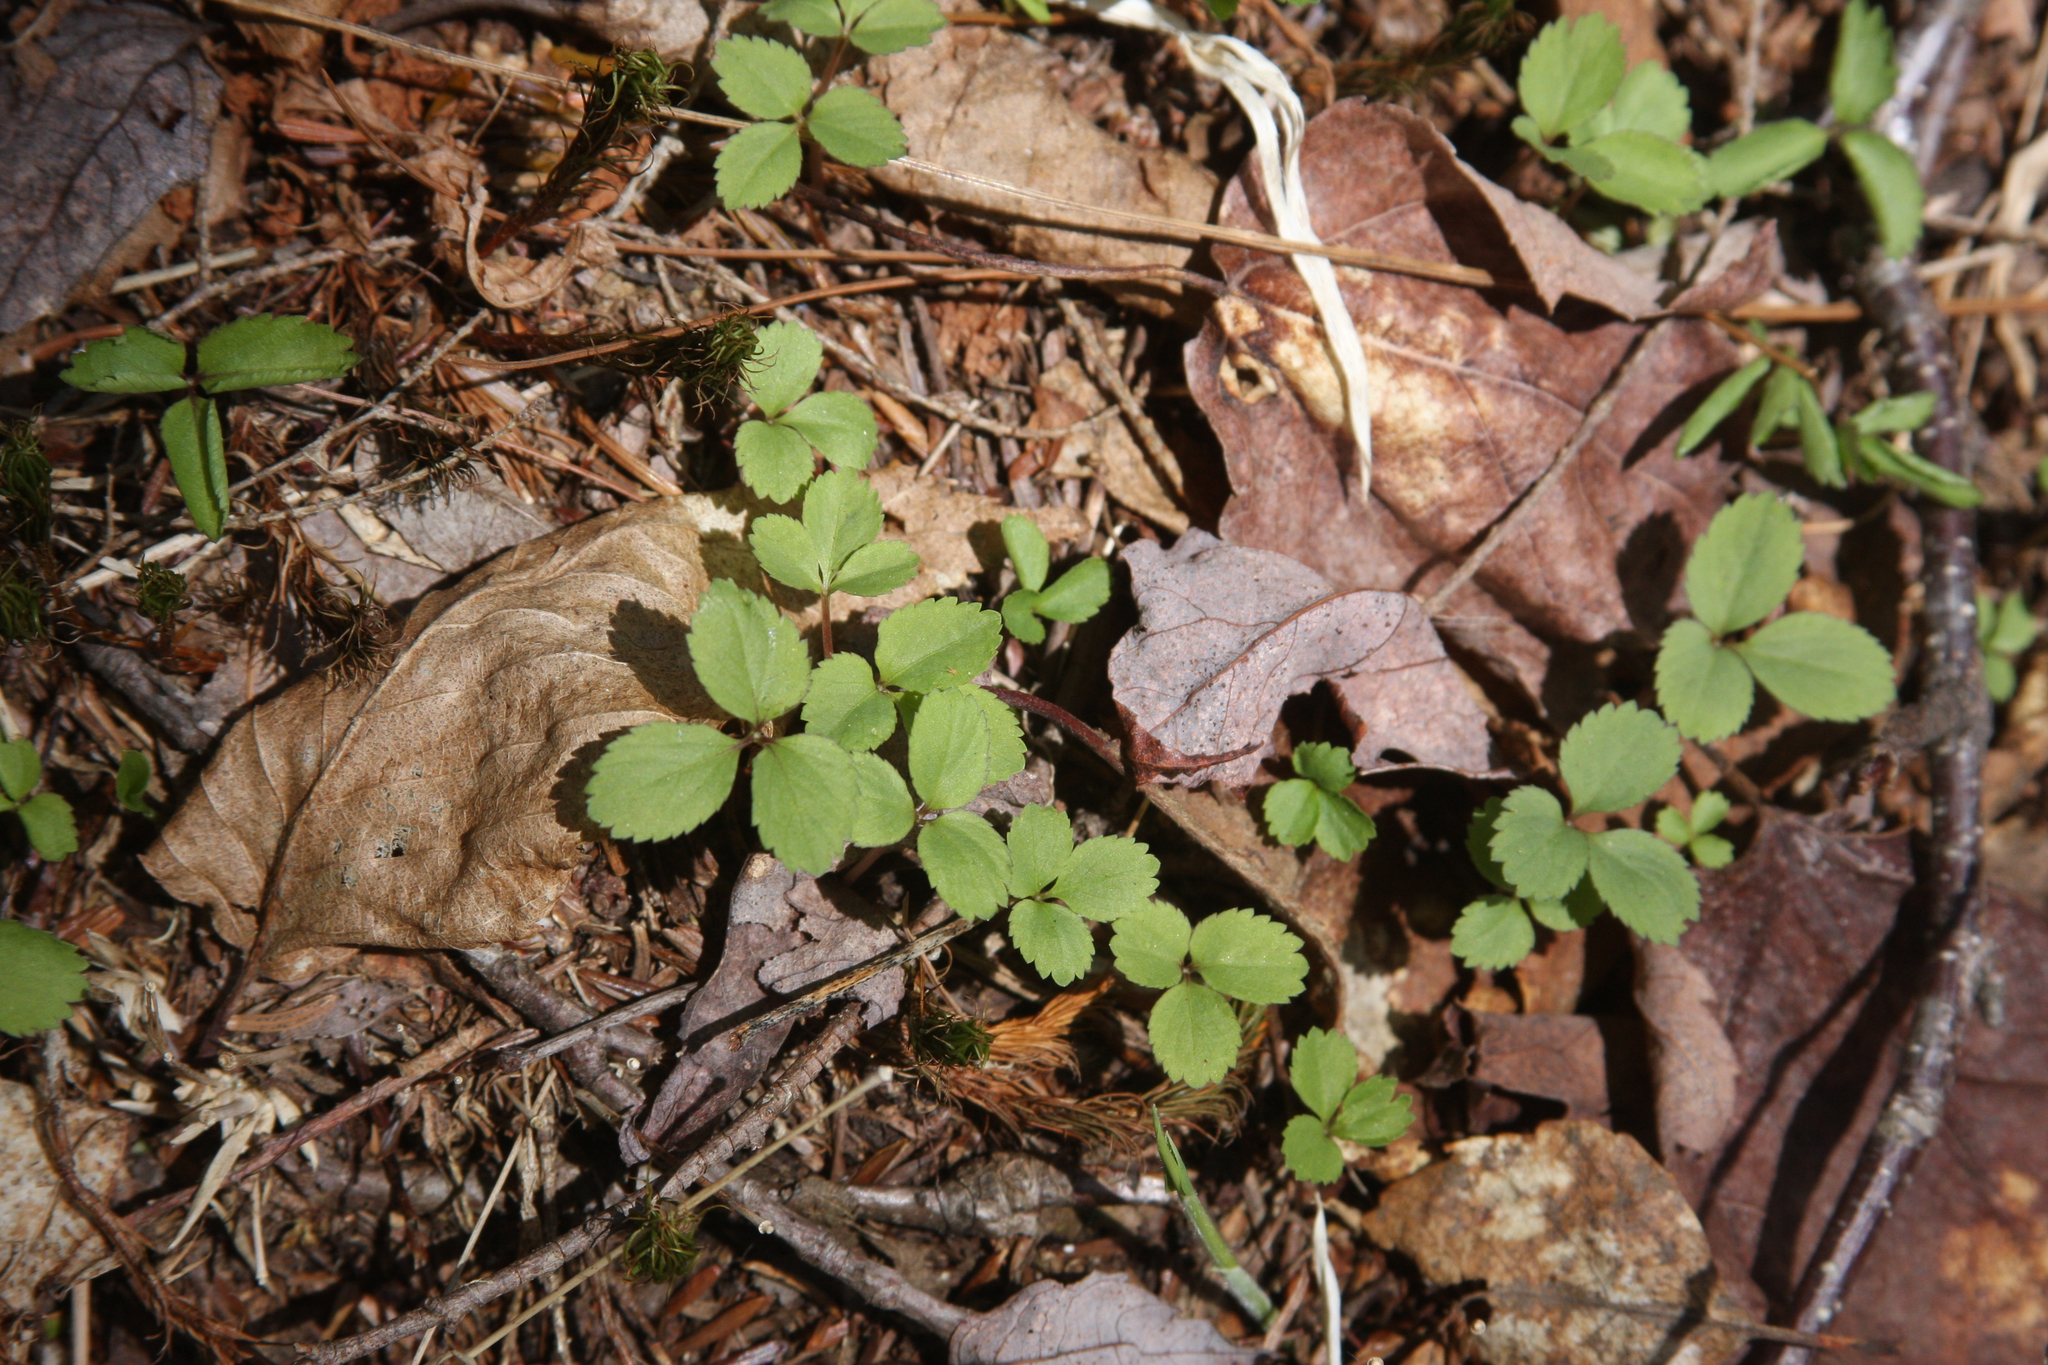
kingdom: Plantae
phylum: Tracheophyta
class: Magnoliopsida
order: Apiales
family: Araliaceae
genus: Panax
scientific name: Panax trifolius
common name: Dwarf ginseng
